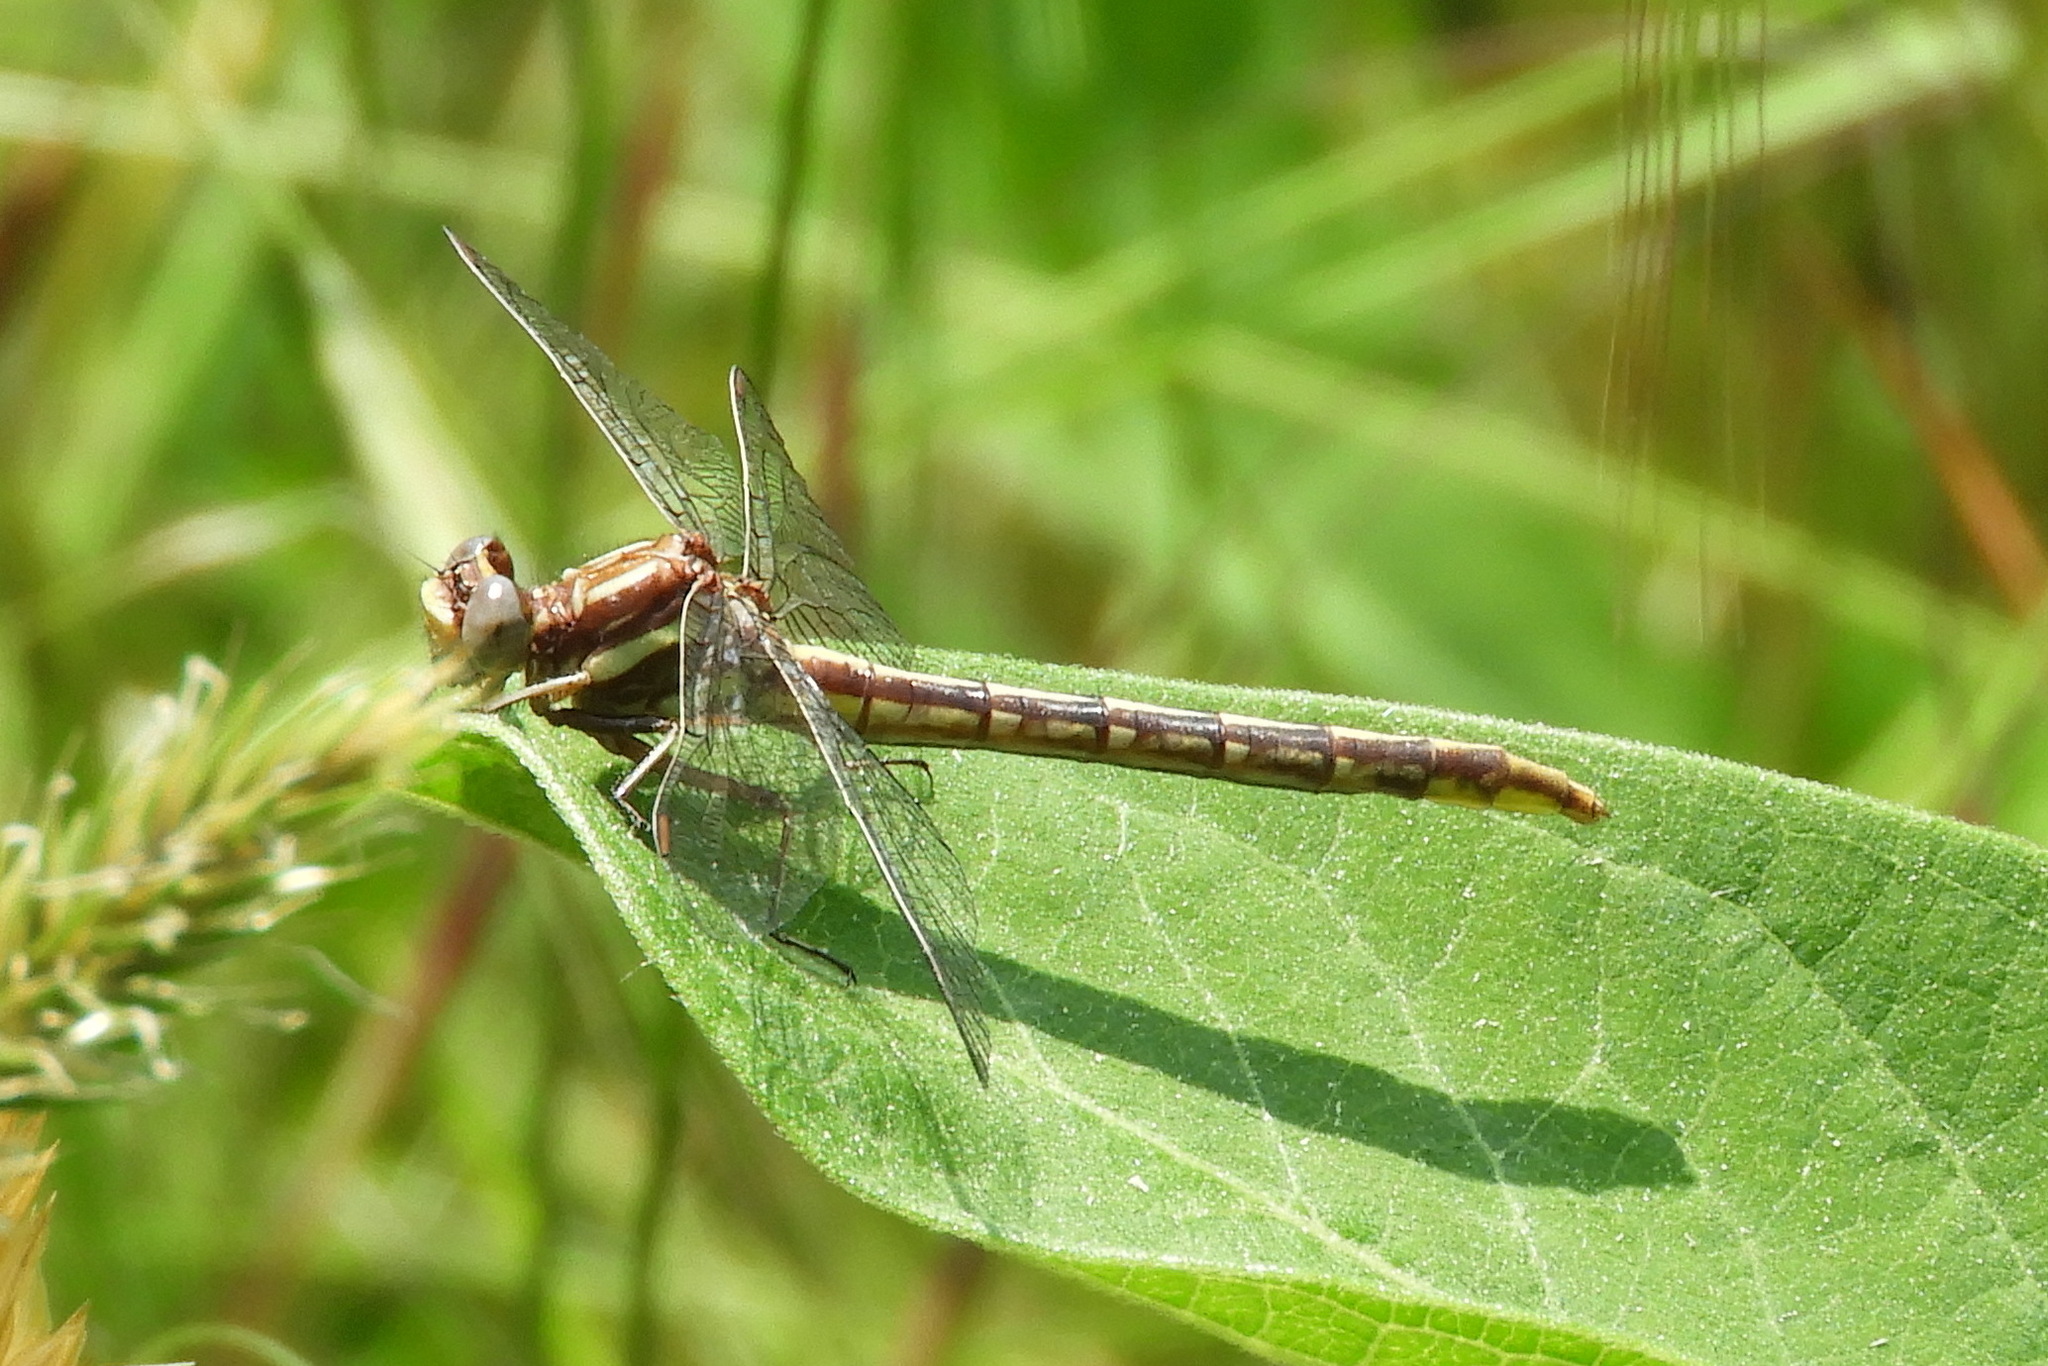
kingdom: Animalia
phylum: Arthropoda
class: Insecta
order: Odonata
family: Gomphidae
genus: Phanogomphus
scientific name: Phanogomphus lividus
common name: Ashy clubtail
